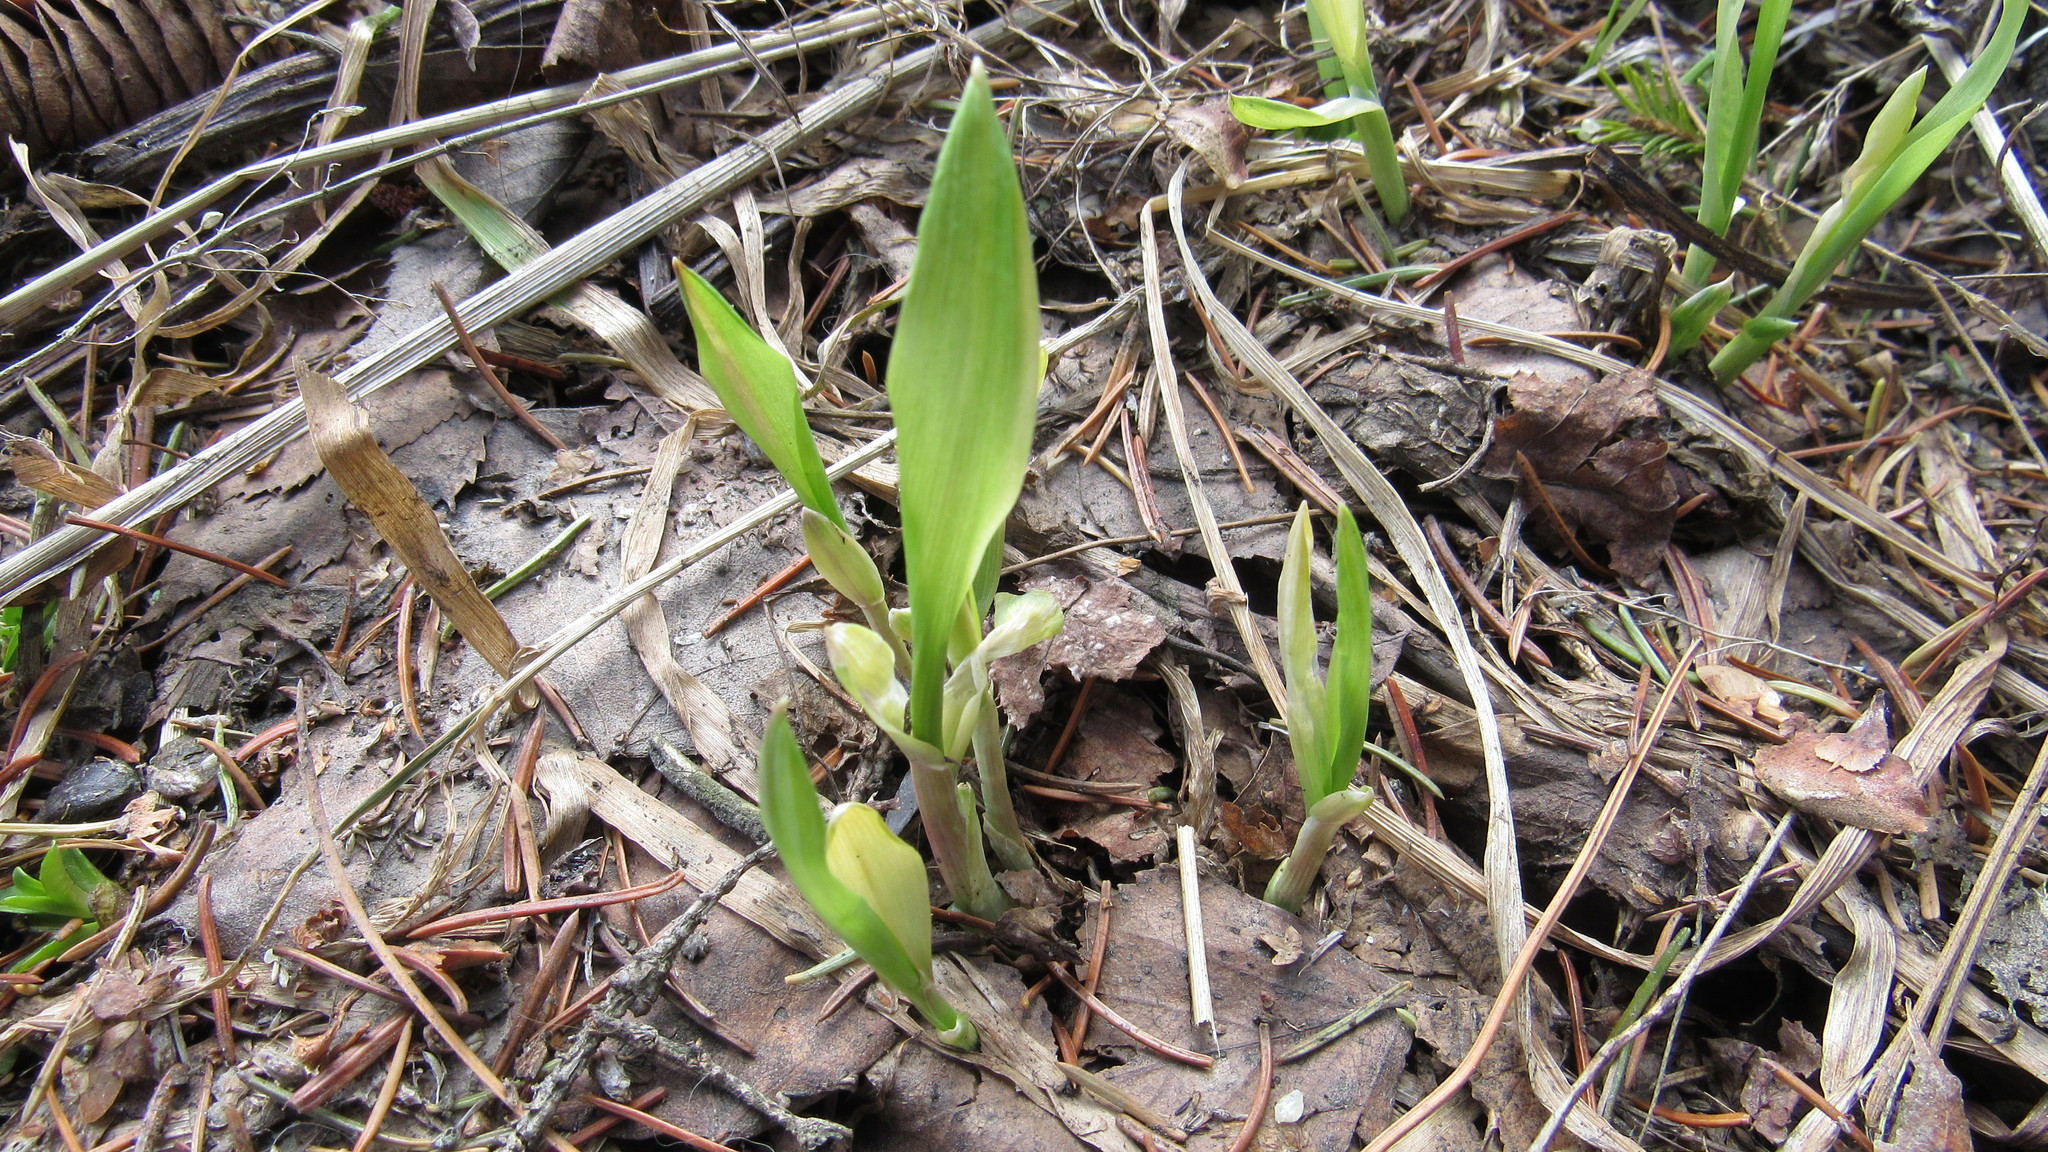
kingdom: Plantae
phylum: Tracheophyta
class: Liliopsida
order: Poales
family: Poaceae
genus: Milium
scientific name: Milium effusum
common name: Wood millet
